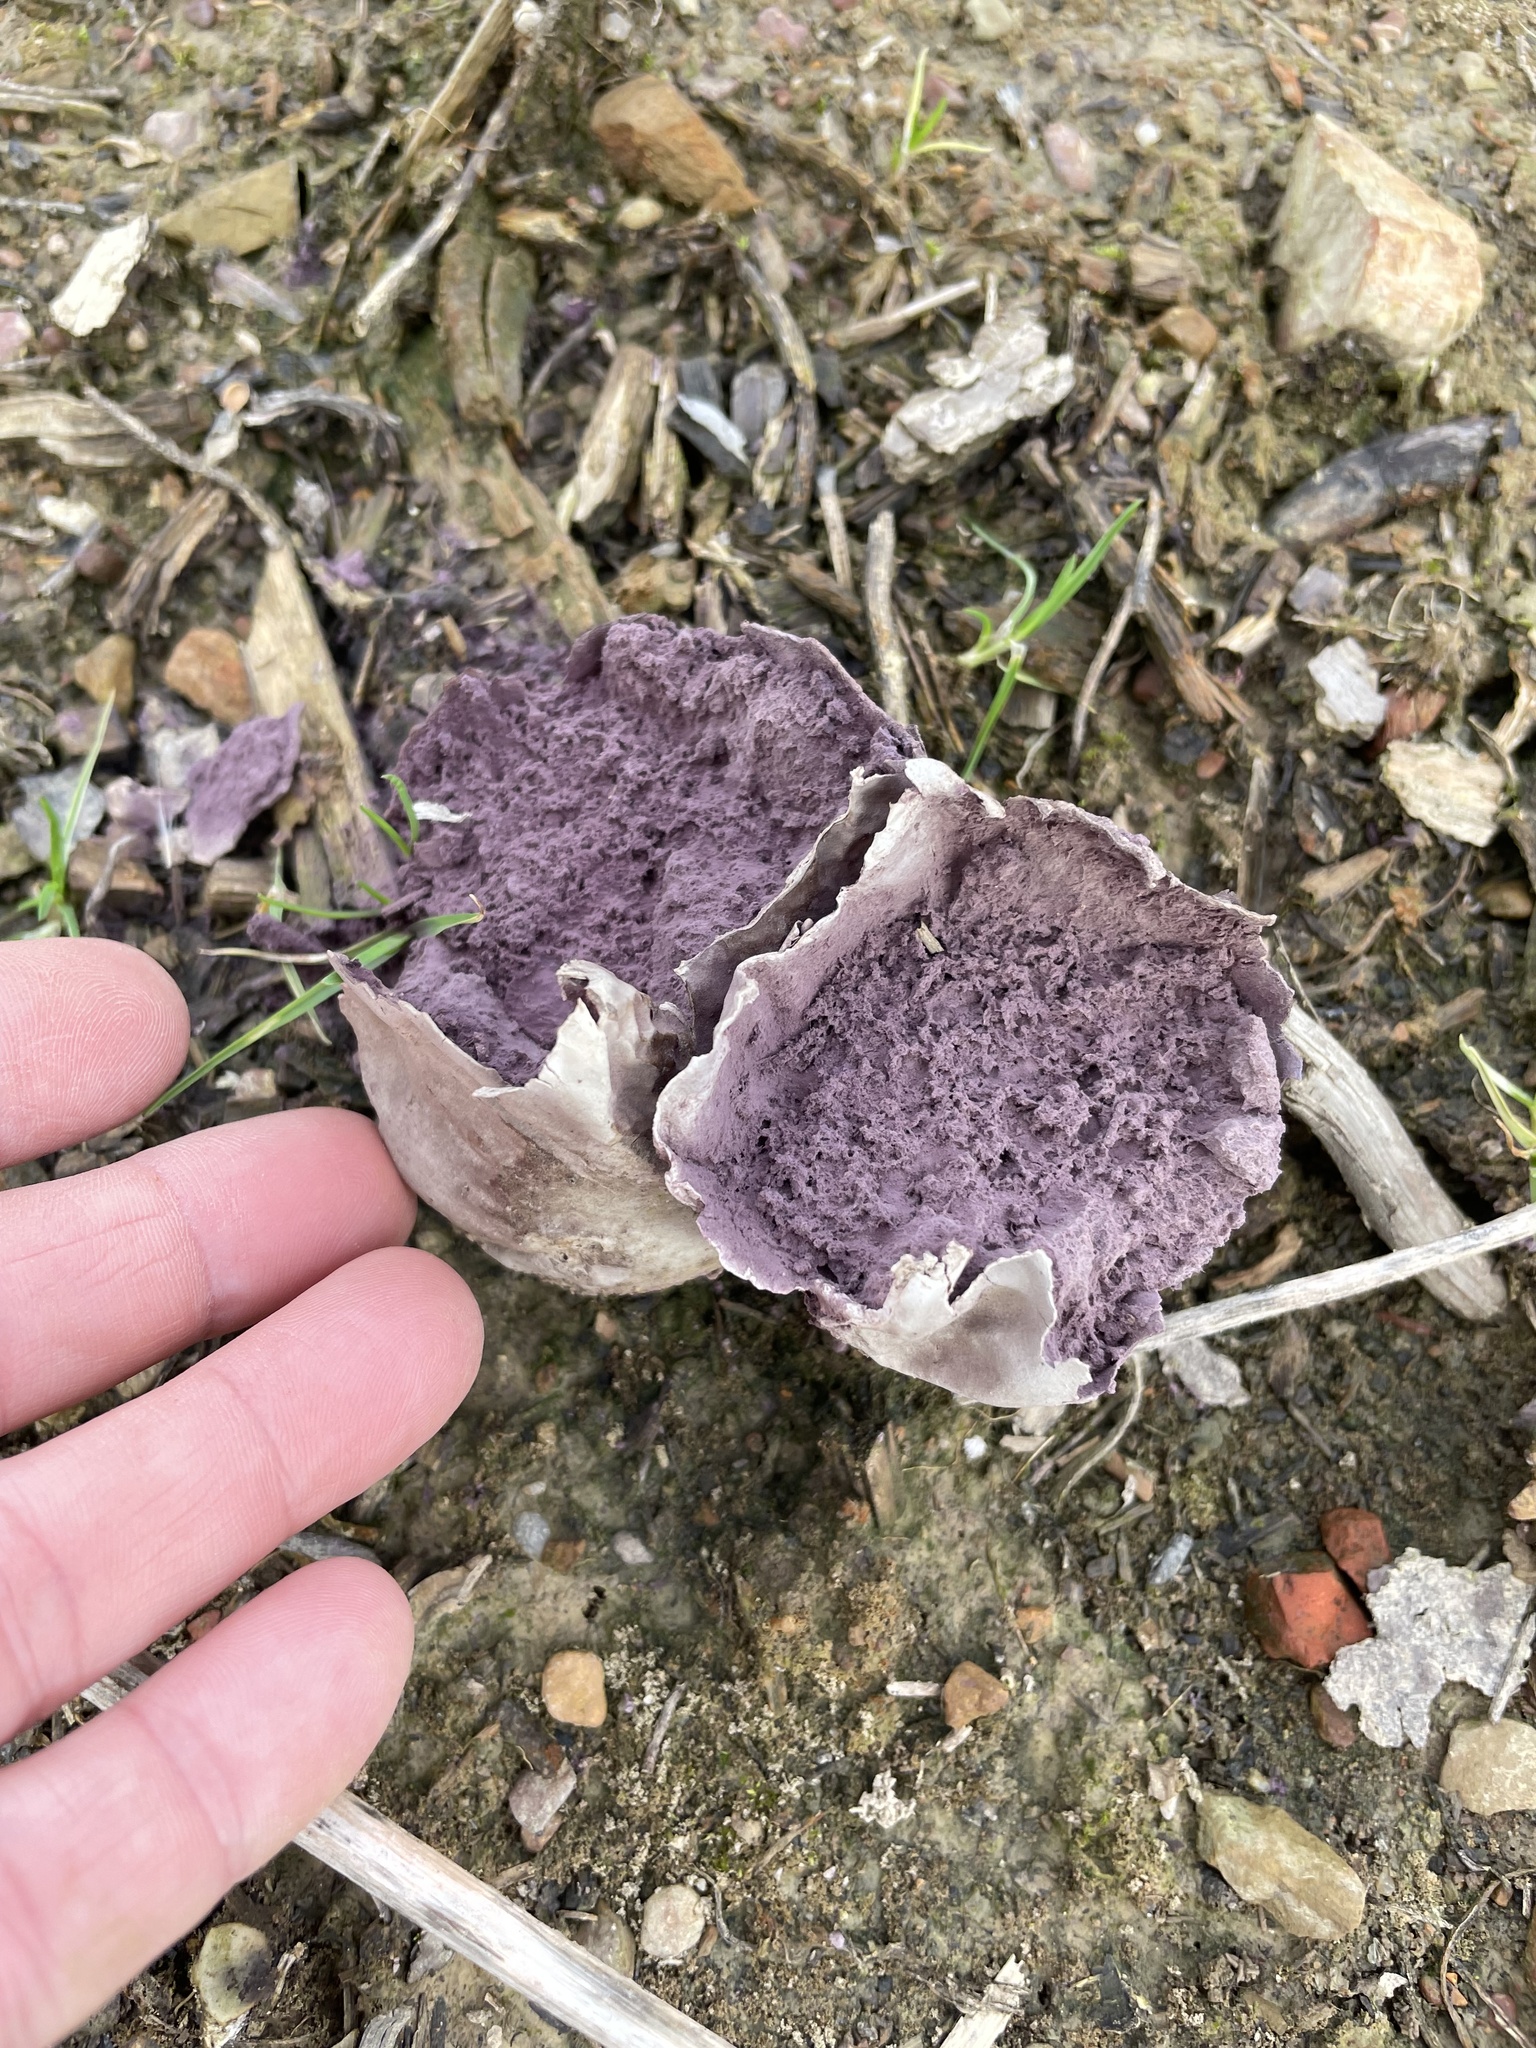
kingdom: Fungi
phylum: Basidiomycota
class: Agaricomycetes
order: Agaricales
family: Lycoperdaceae
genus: Calvatia
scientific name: Calvatia cyathiformis
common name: Purple-spored puffball
